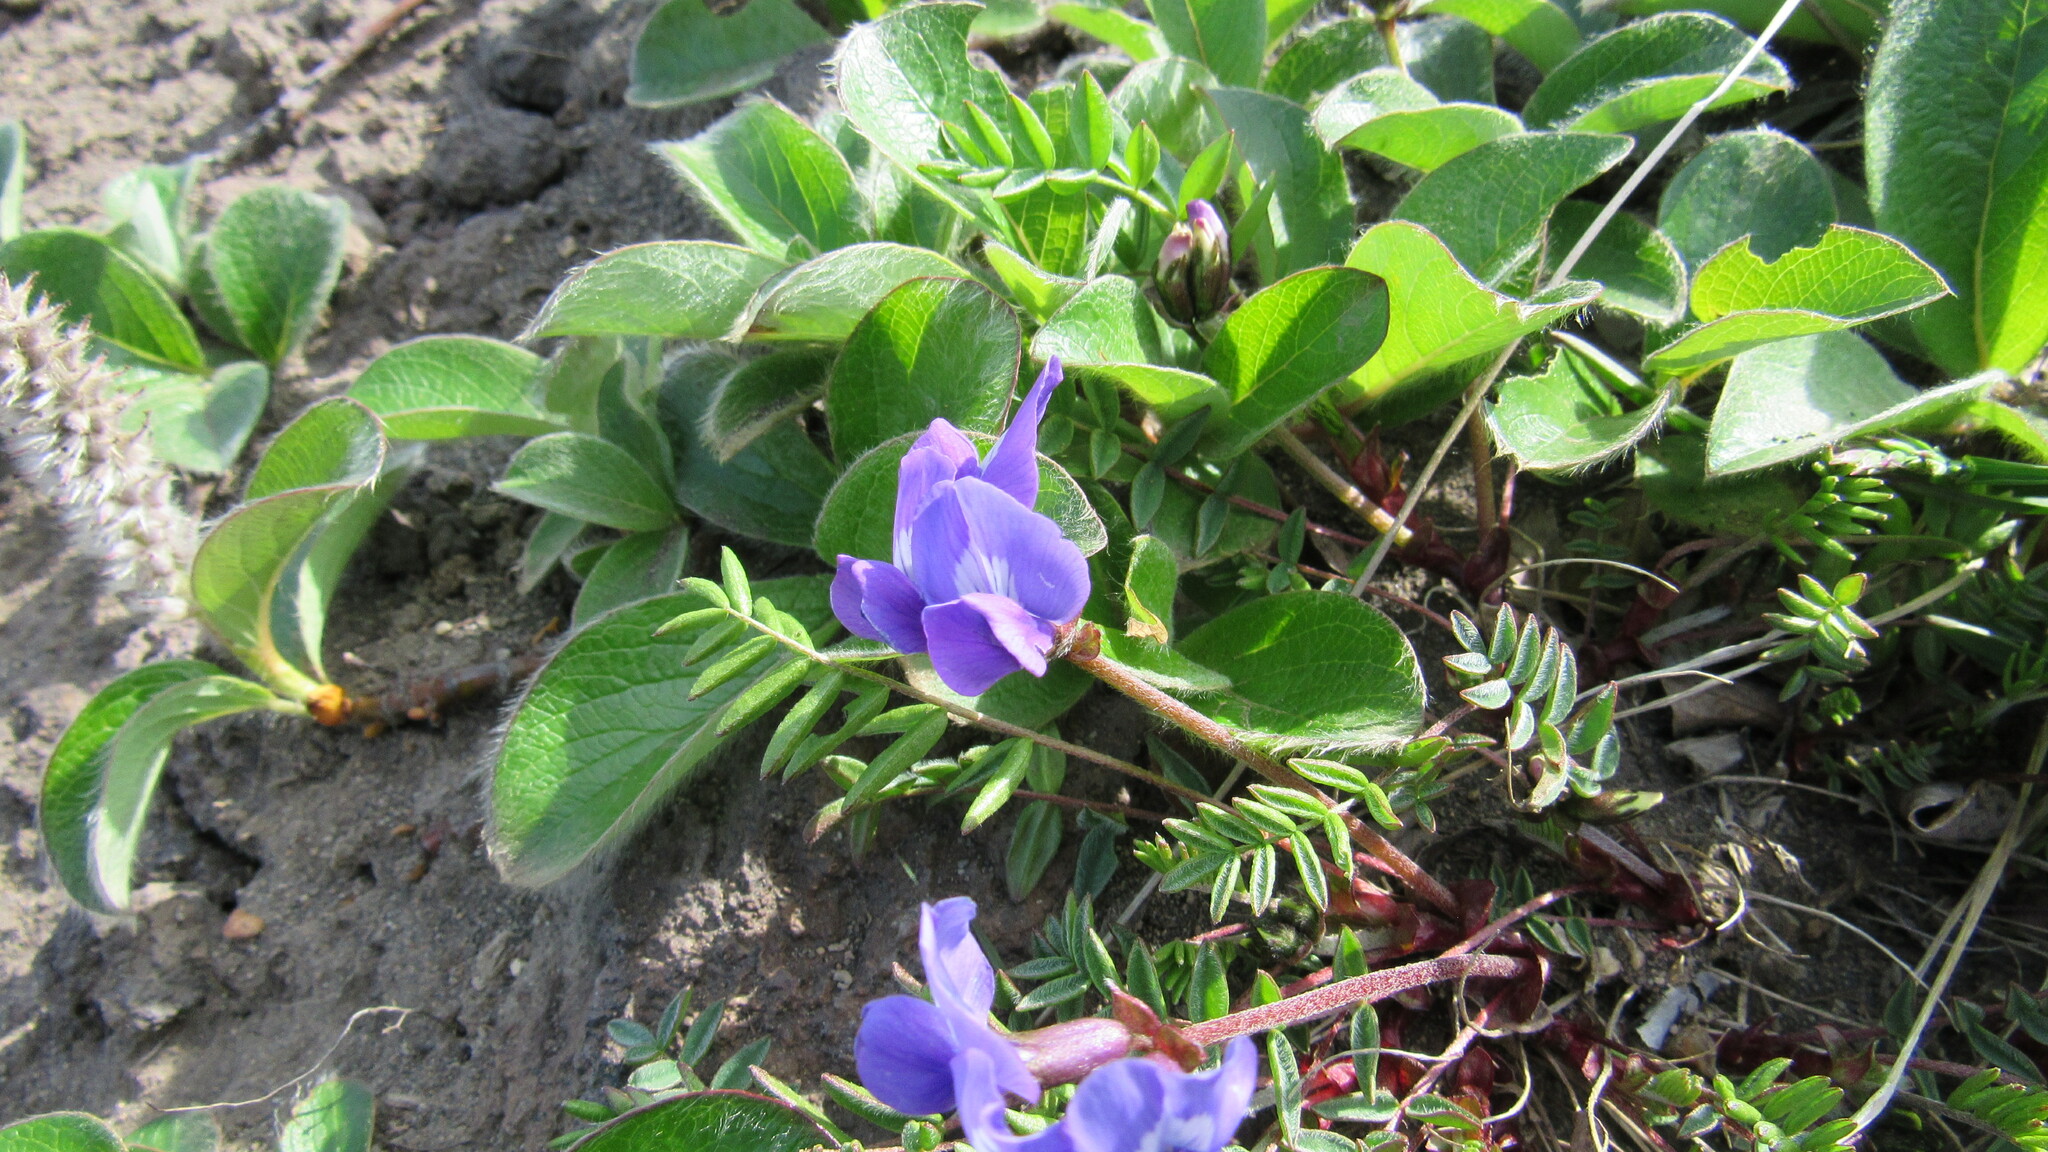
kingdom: Plantae
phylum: Tracheophyta
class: Magnoliopsida
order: Fabales
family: Fabaceae
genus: Oxytropis
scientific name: Oxytropis revoluta
